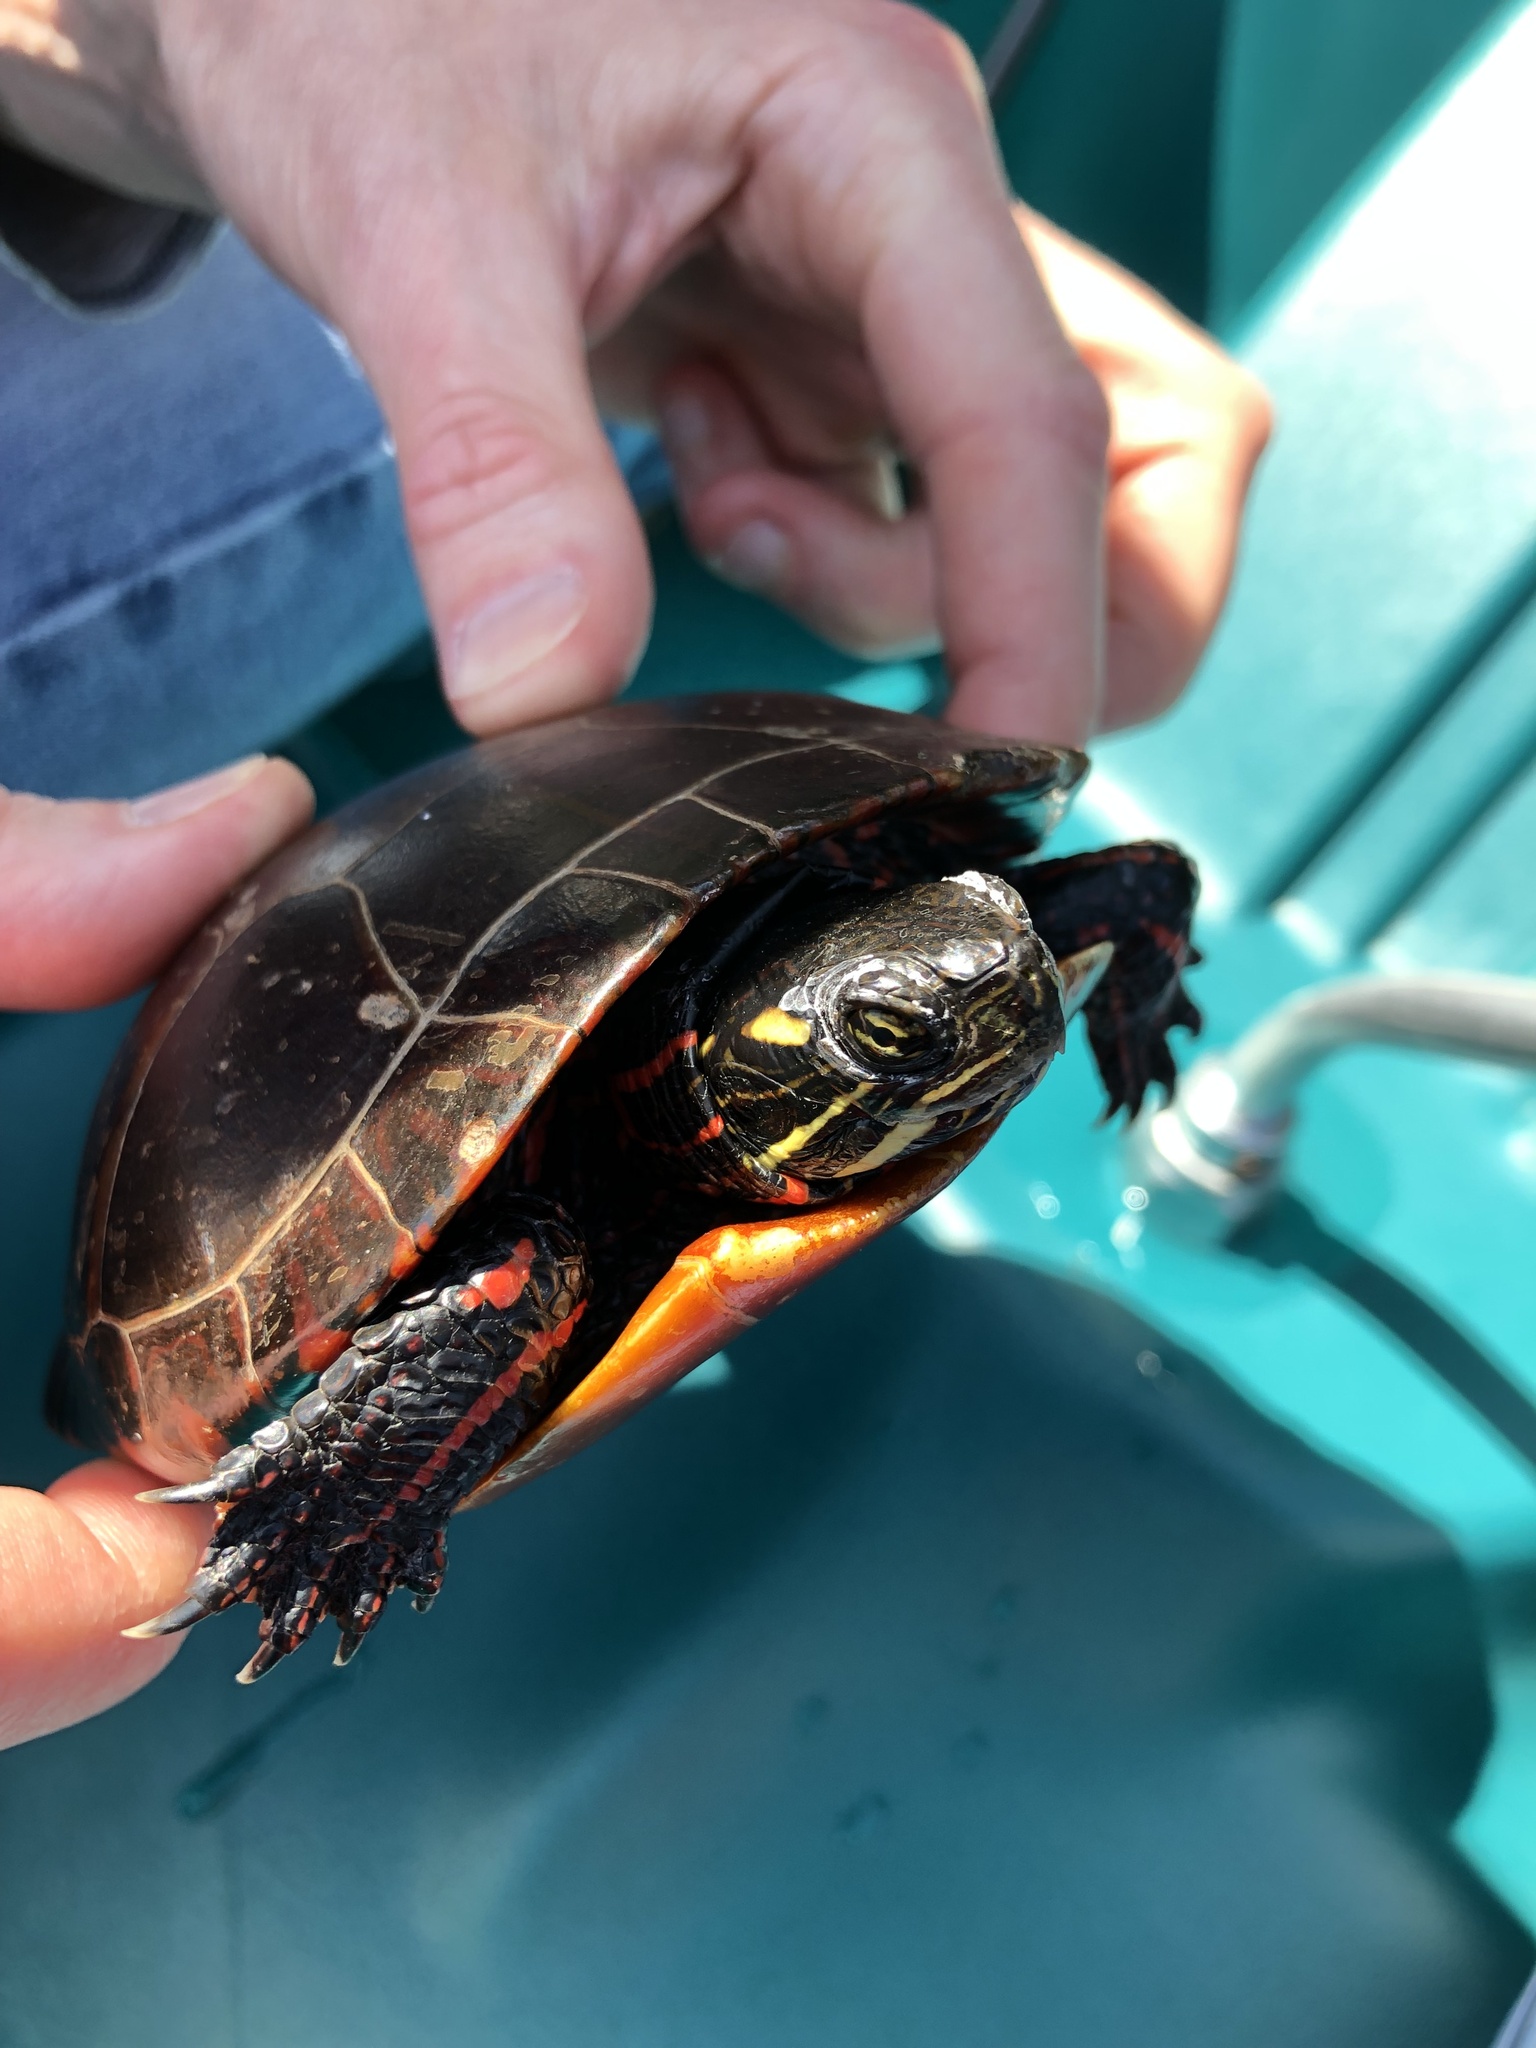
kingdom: Animalia
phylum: Chordata
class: Testudines
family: Emydidae
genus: Chrysemys
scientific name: Chrysemys picta
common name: Painted turtle
